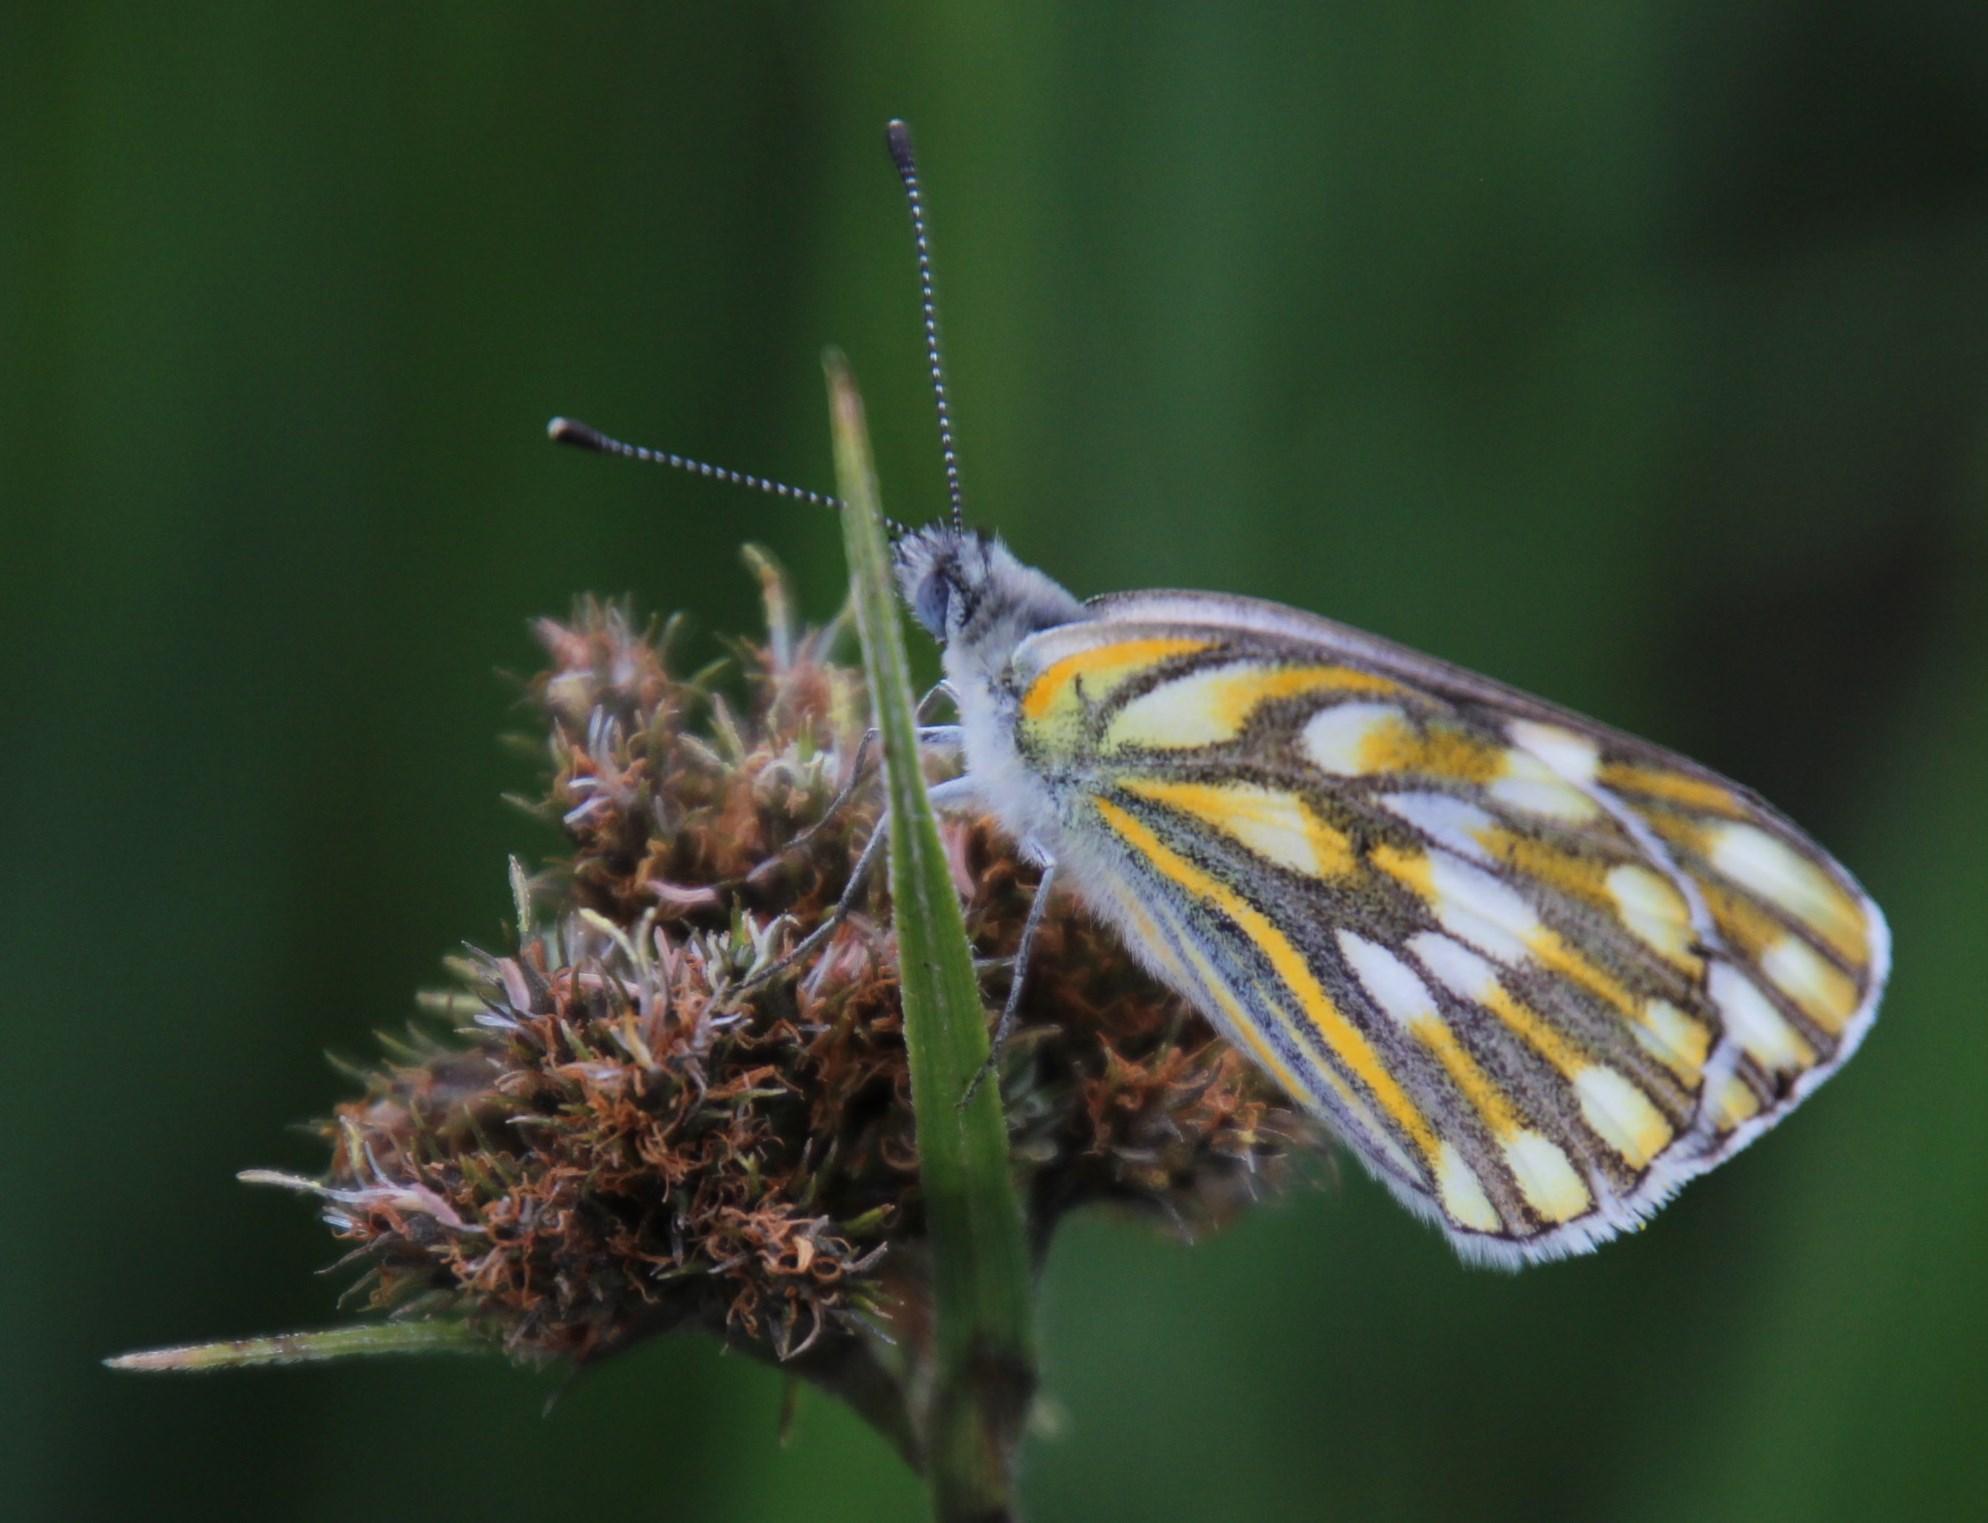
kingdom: Animalia
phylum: Arthropoda
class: Insecta
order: Lepidoptera
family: Pieridae
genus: Pontia
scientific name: Pontia helice
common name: Meadow white
